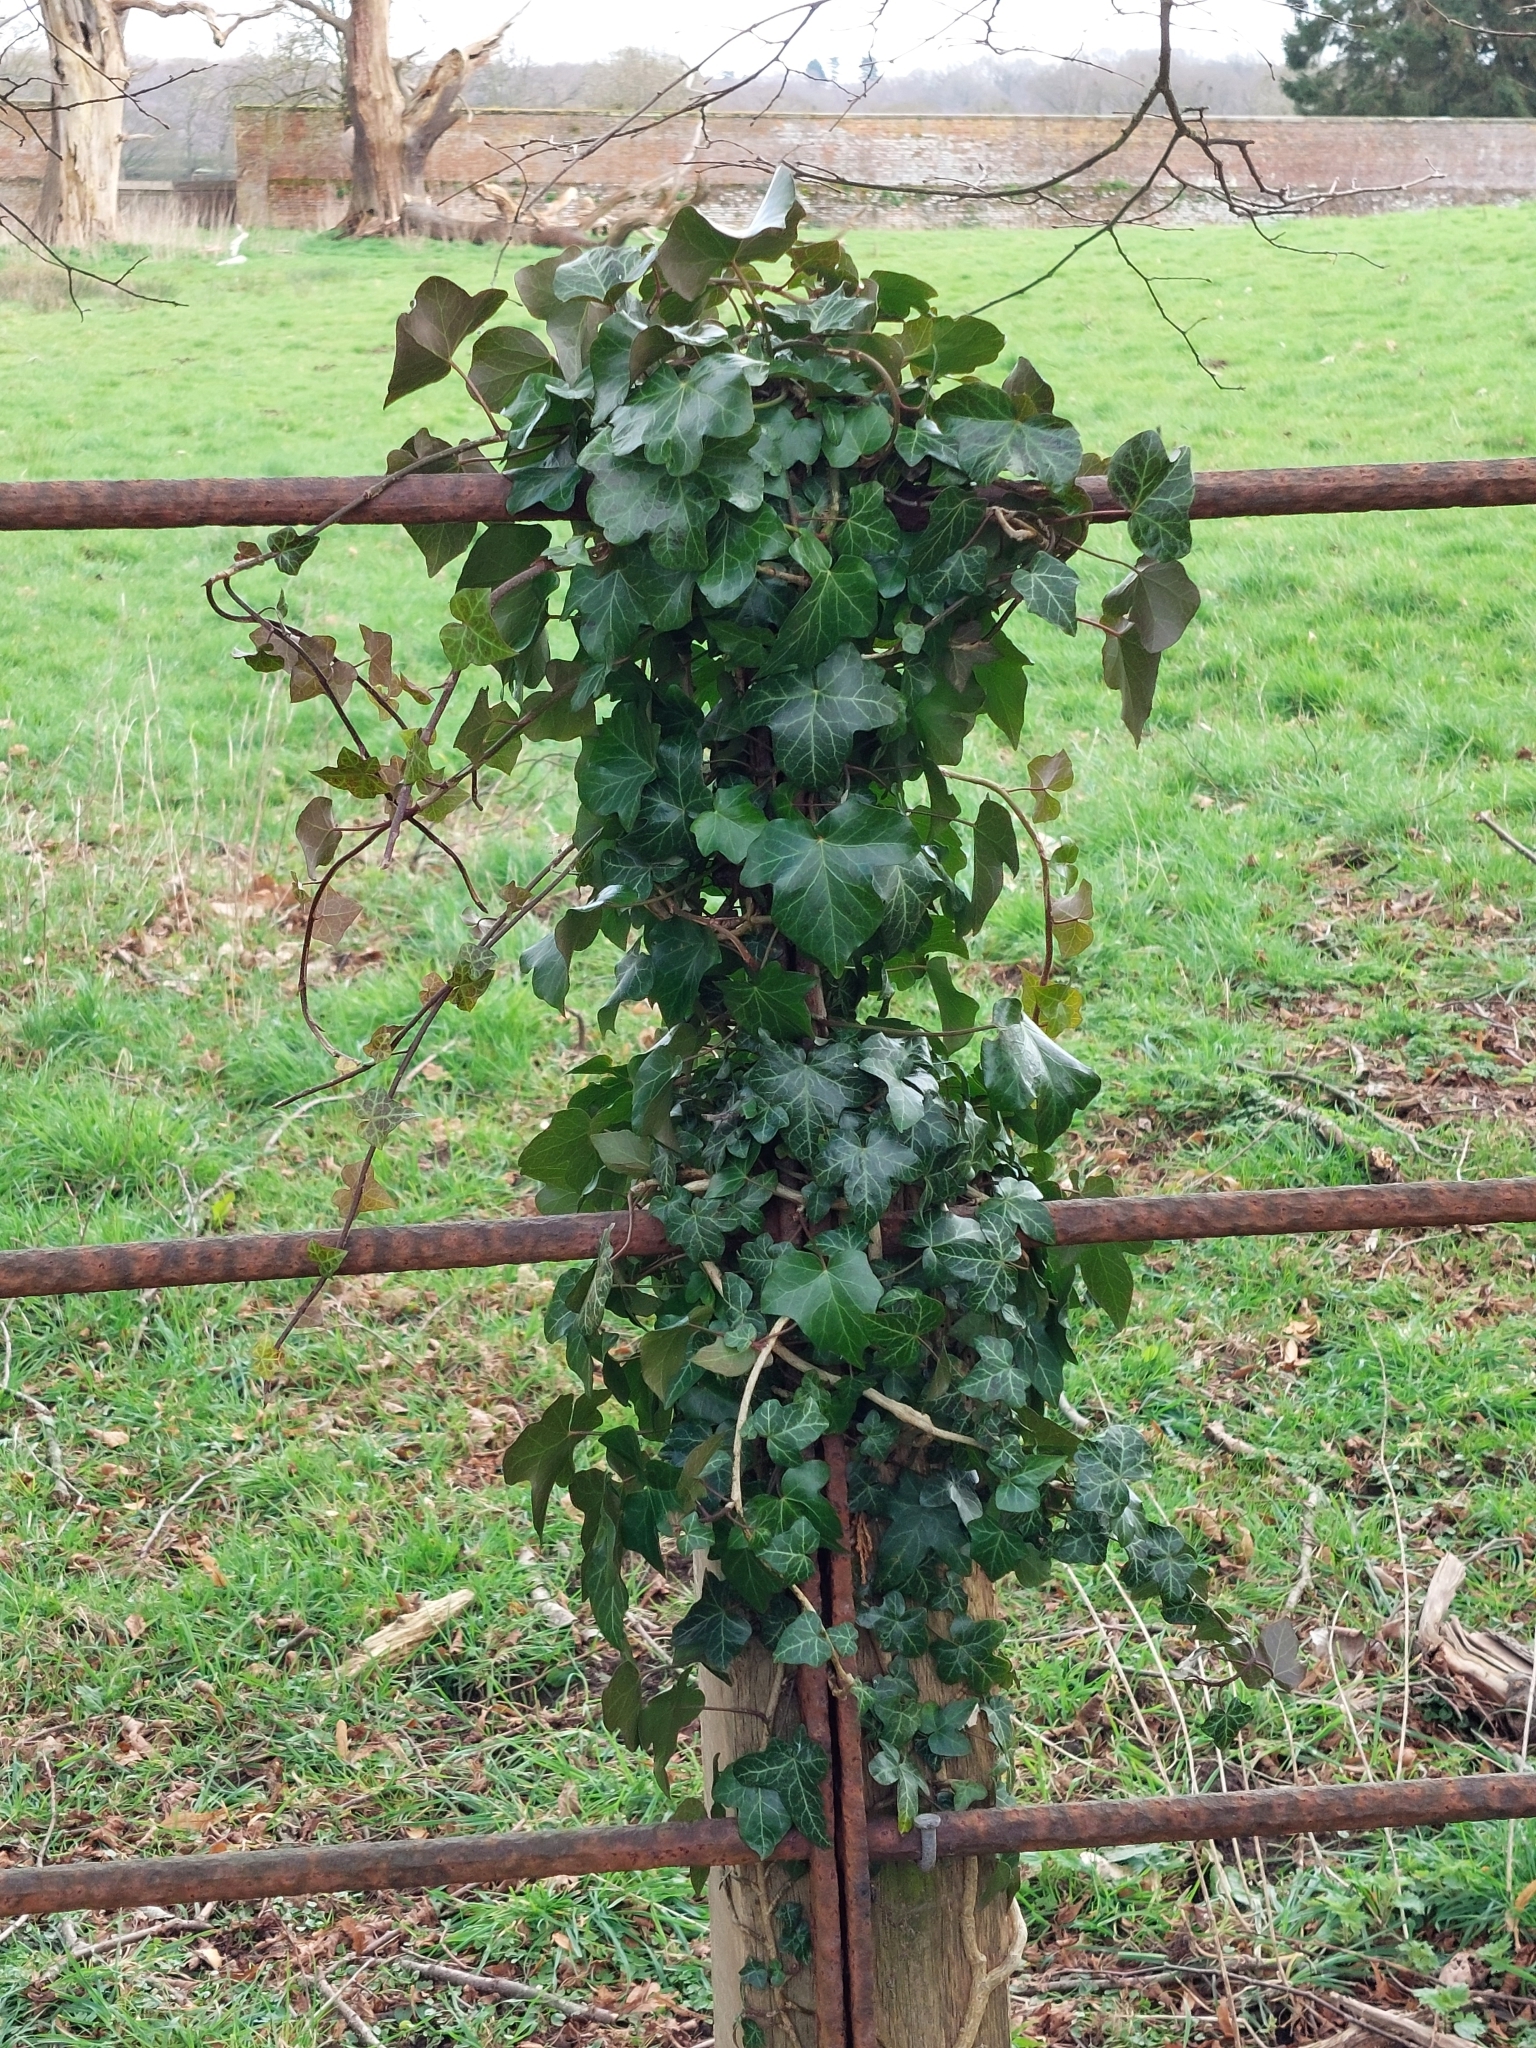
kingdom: Plantae
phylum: Tracheophyta
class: Magnoliopsida
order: Apiales
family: Araliaceae
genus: Hedera
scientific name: Hedera helix
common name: Ivy
